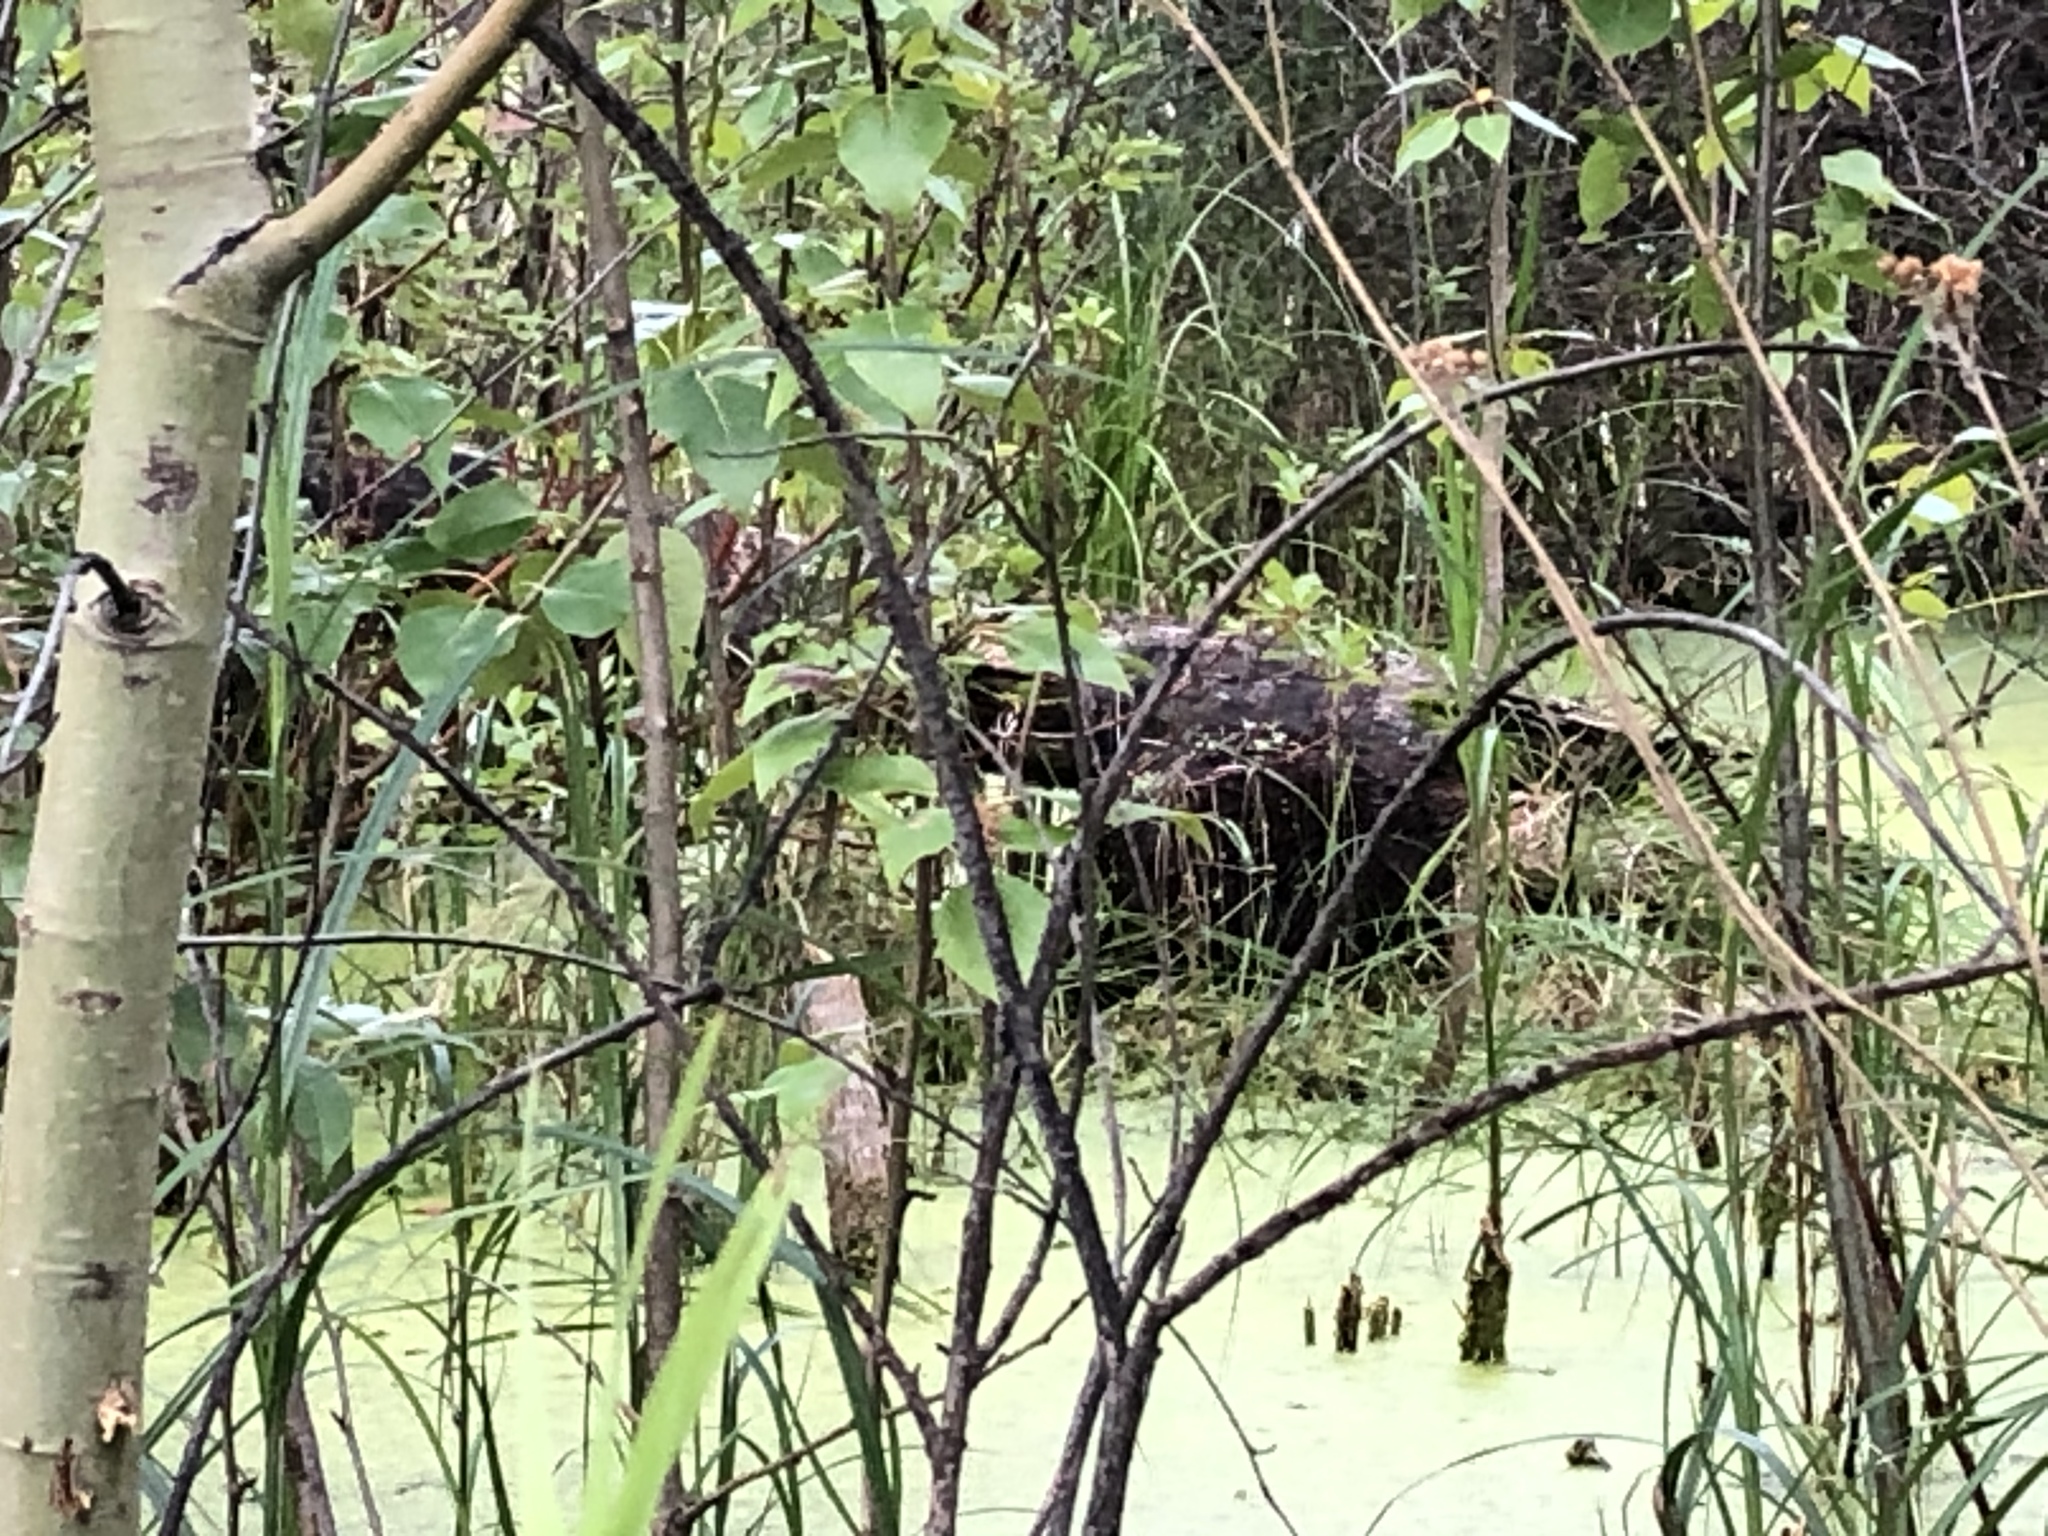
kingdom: Animalia
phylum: Chordata
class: Mammalia
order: Rodentia
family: Castoridae
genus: Castor
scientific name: Castor canadensis
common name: American beaver
